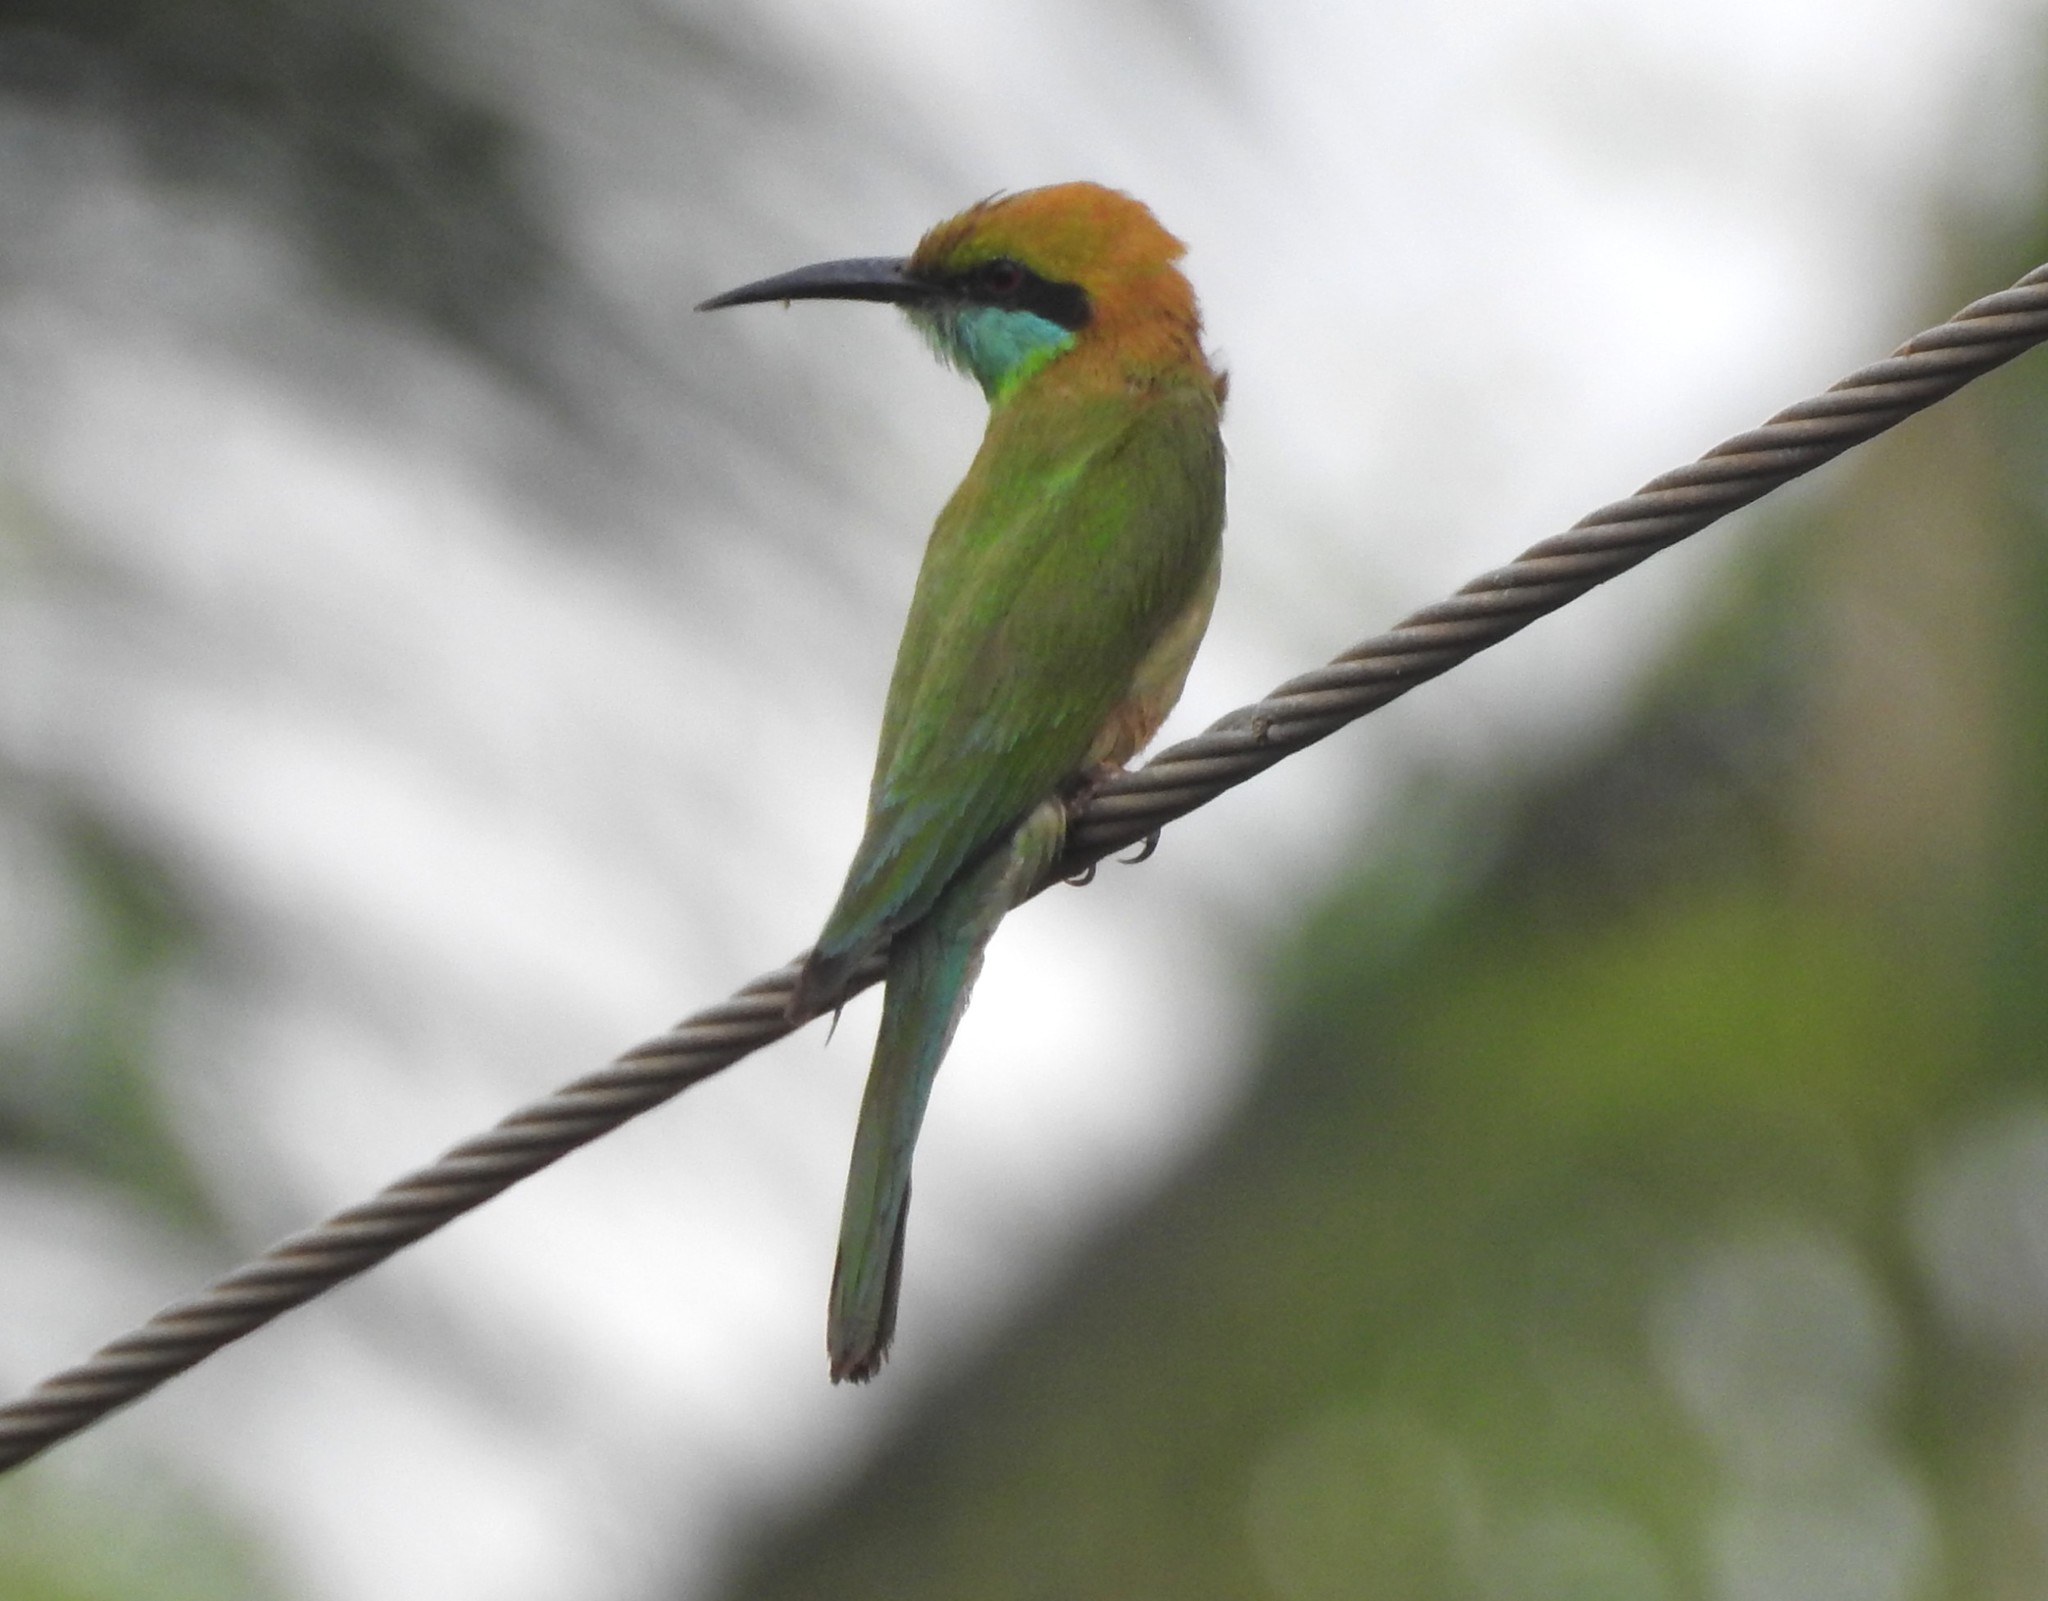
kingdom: Animalia
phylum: Chordata
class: Aves
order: Coraciiformes
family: Meropidae
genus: Merops
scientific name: Merops orientalis
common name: Green bee-eater
